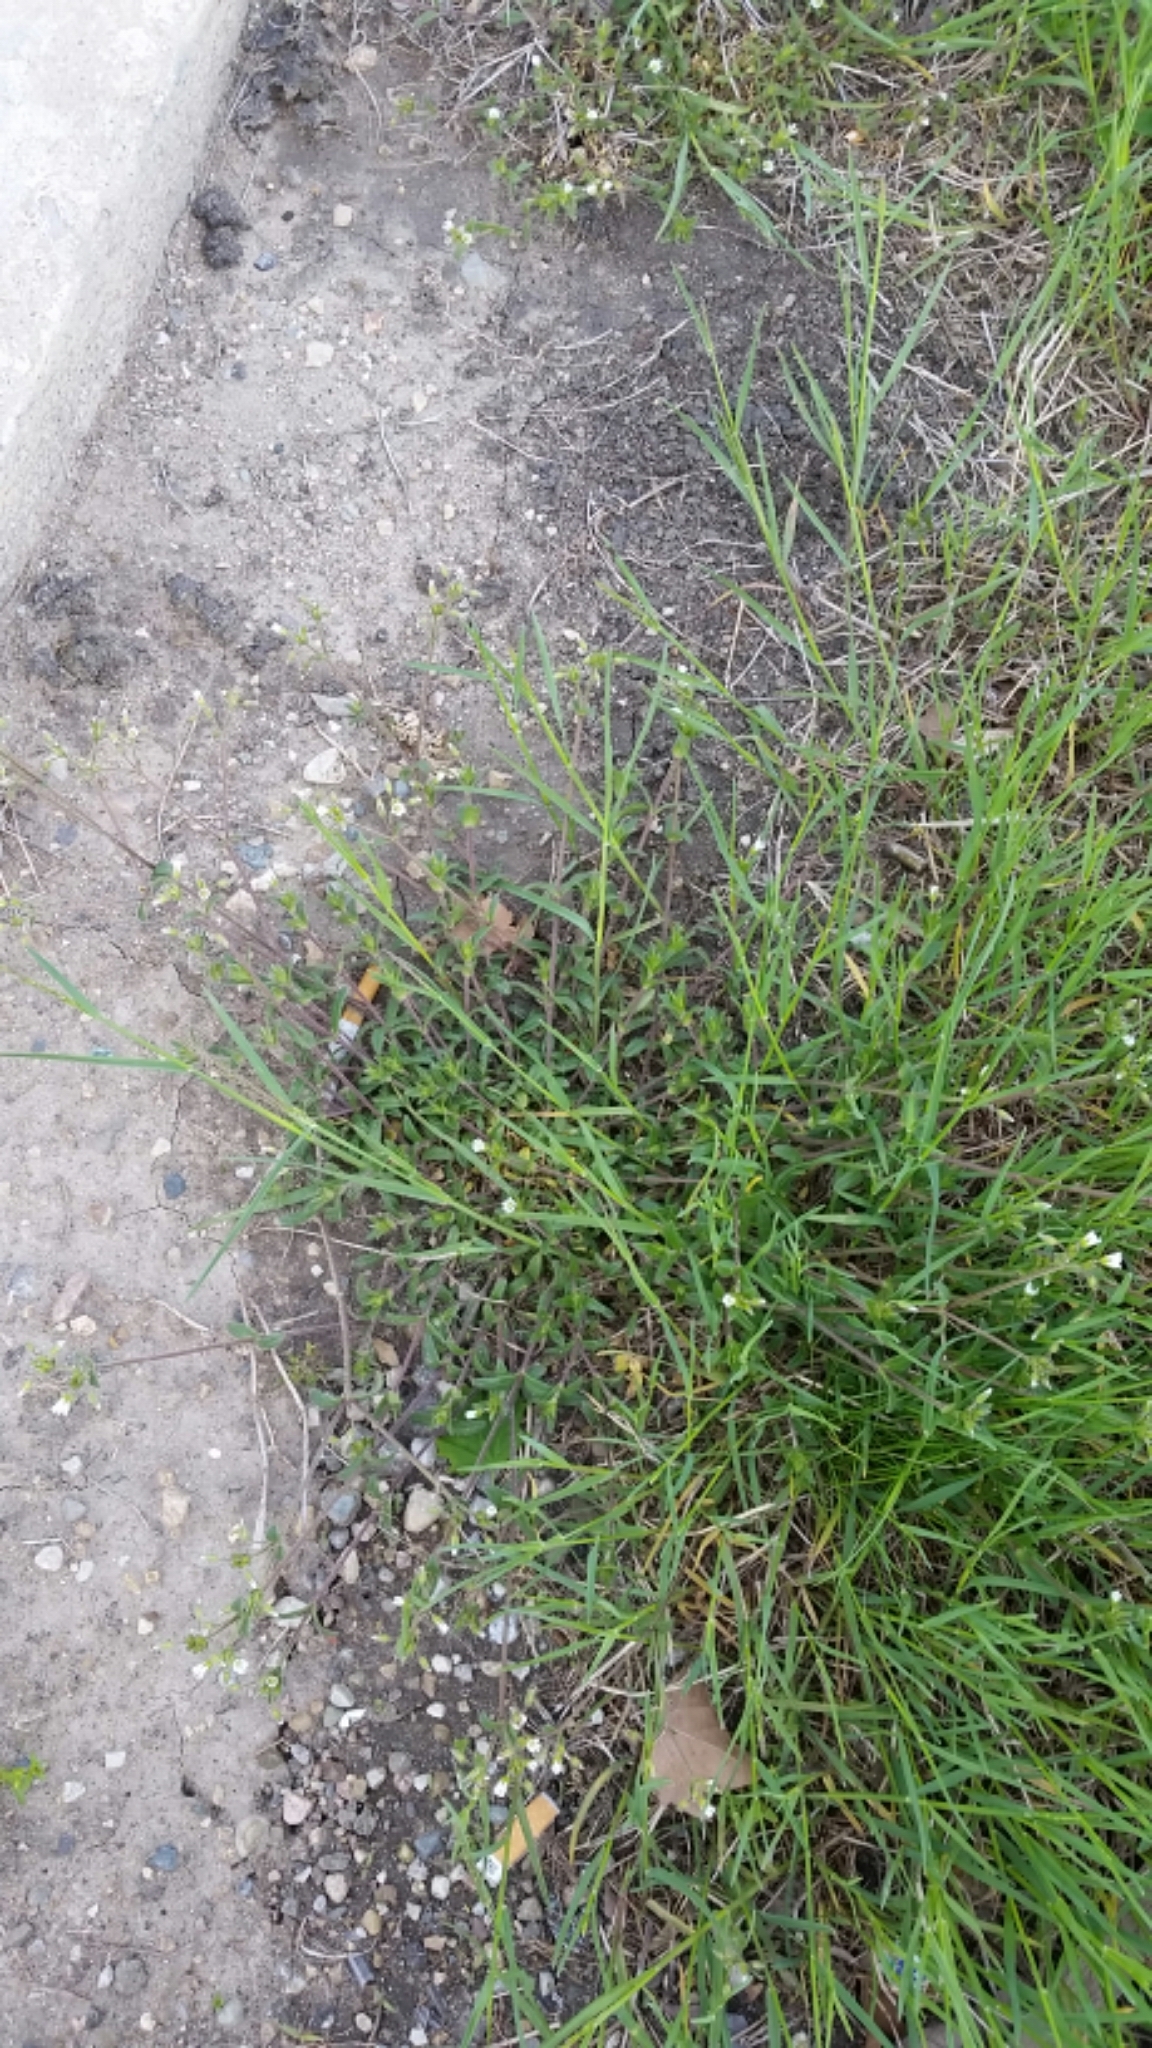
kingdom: Plantae
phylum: Tracheophyta
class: Magnoliopsida
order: Caryophyllales
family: Caryophyllaceae
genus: Cerastium
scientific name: Cerastium fontanum
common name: Common mouse-ear
